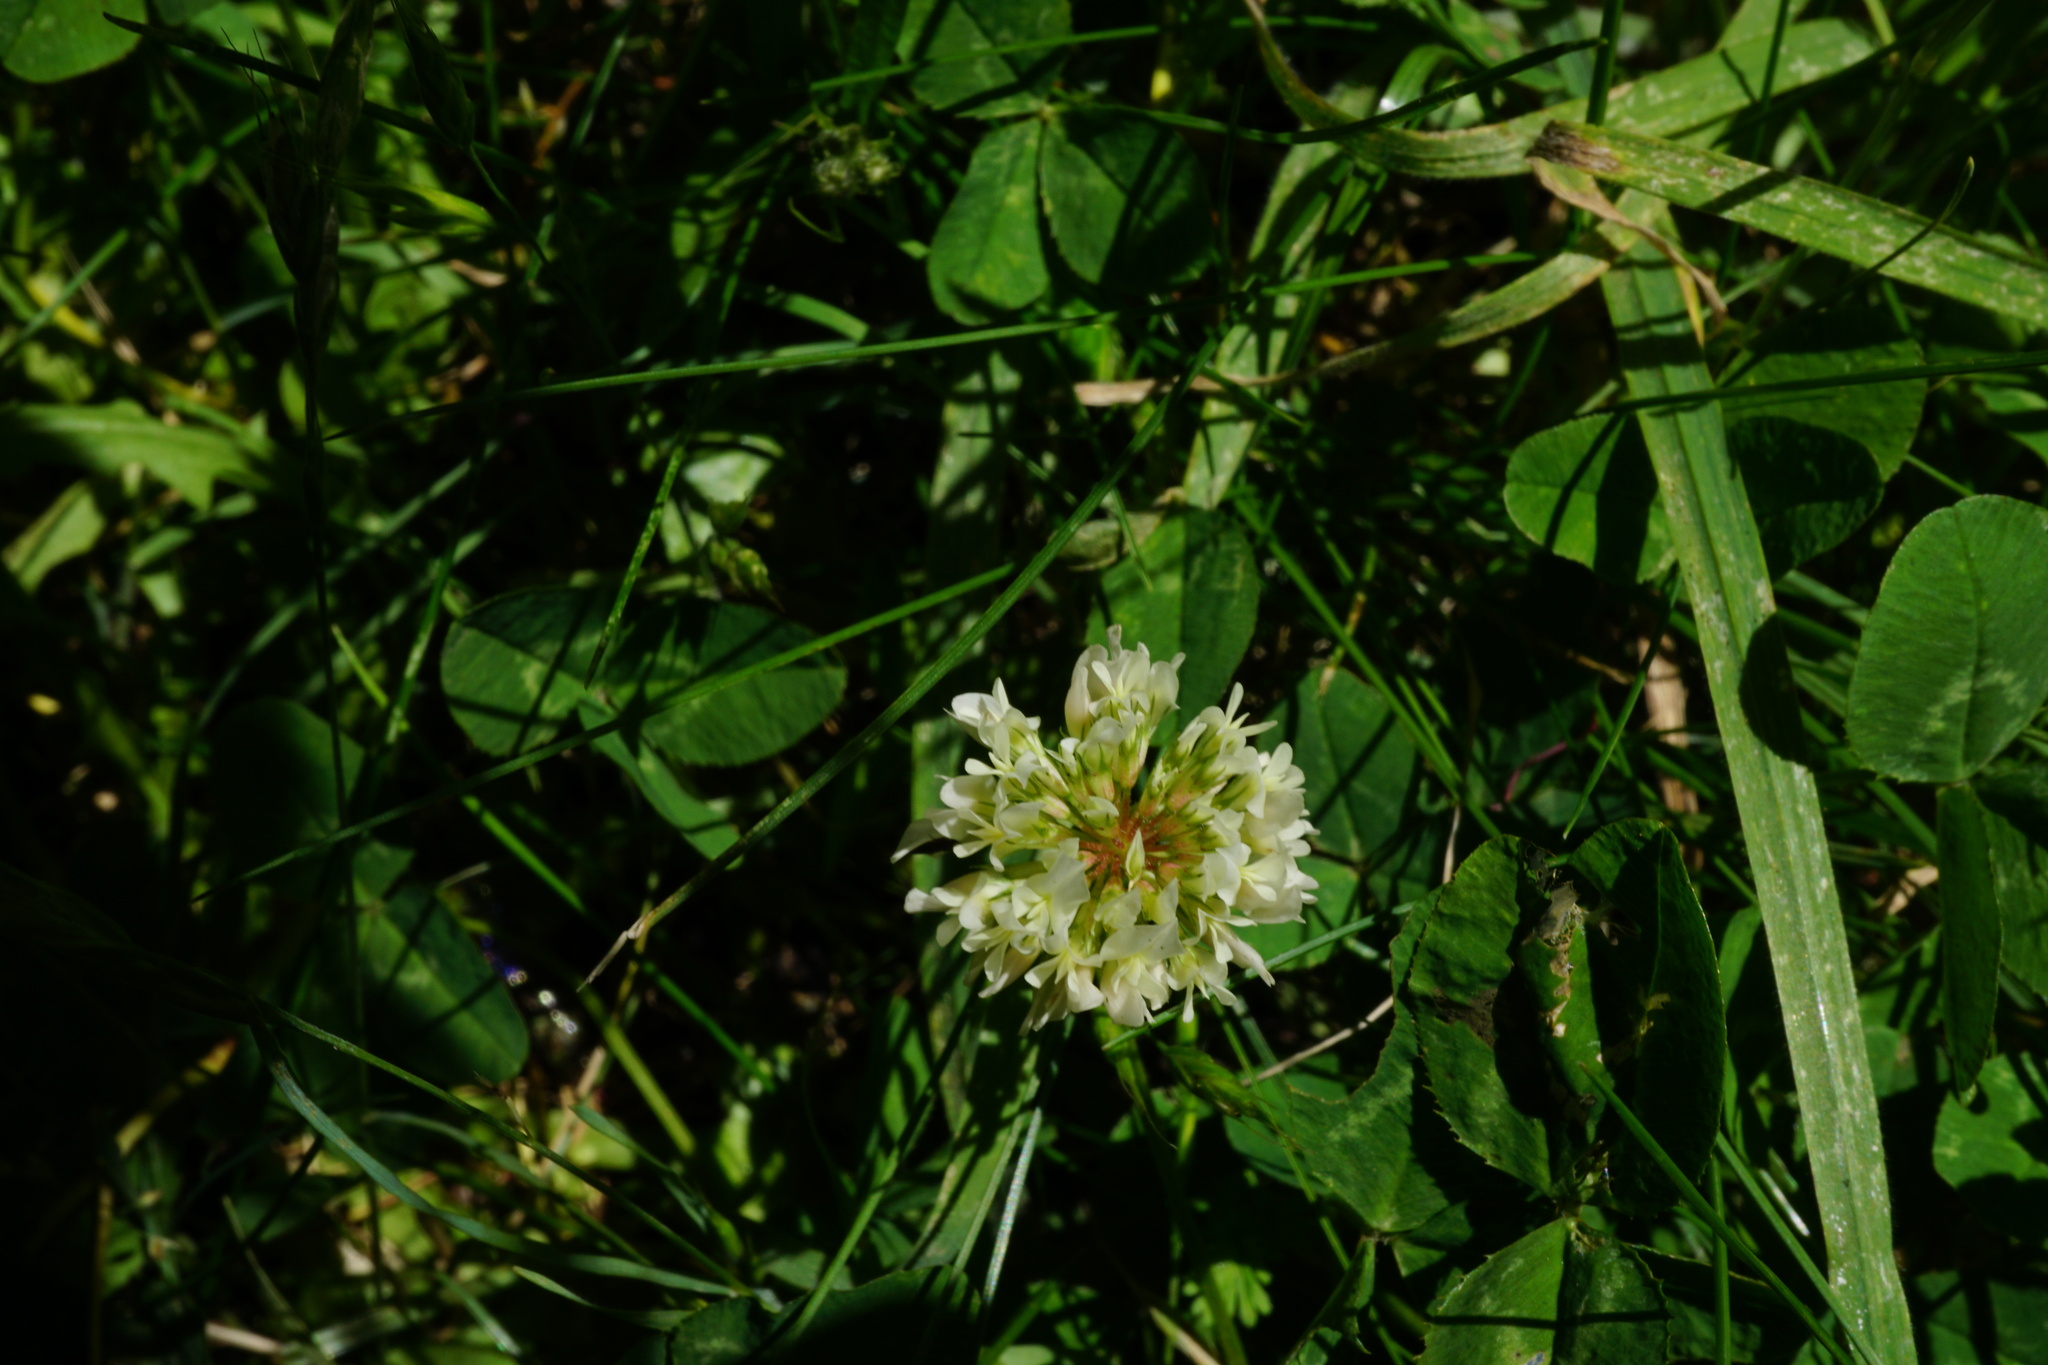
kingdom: Plantae
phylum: Tracheophyta
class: Magnoliopsida
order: Fabales
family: Fabaceae
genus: Trifolium
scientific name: Trifolium repens
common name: White clover
